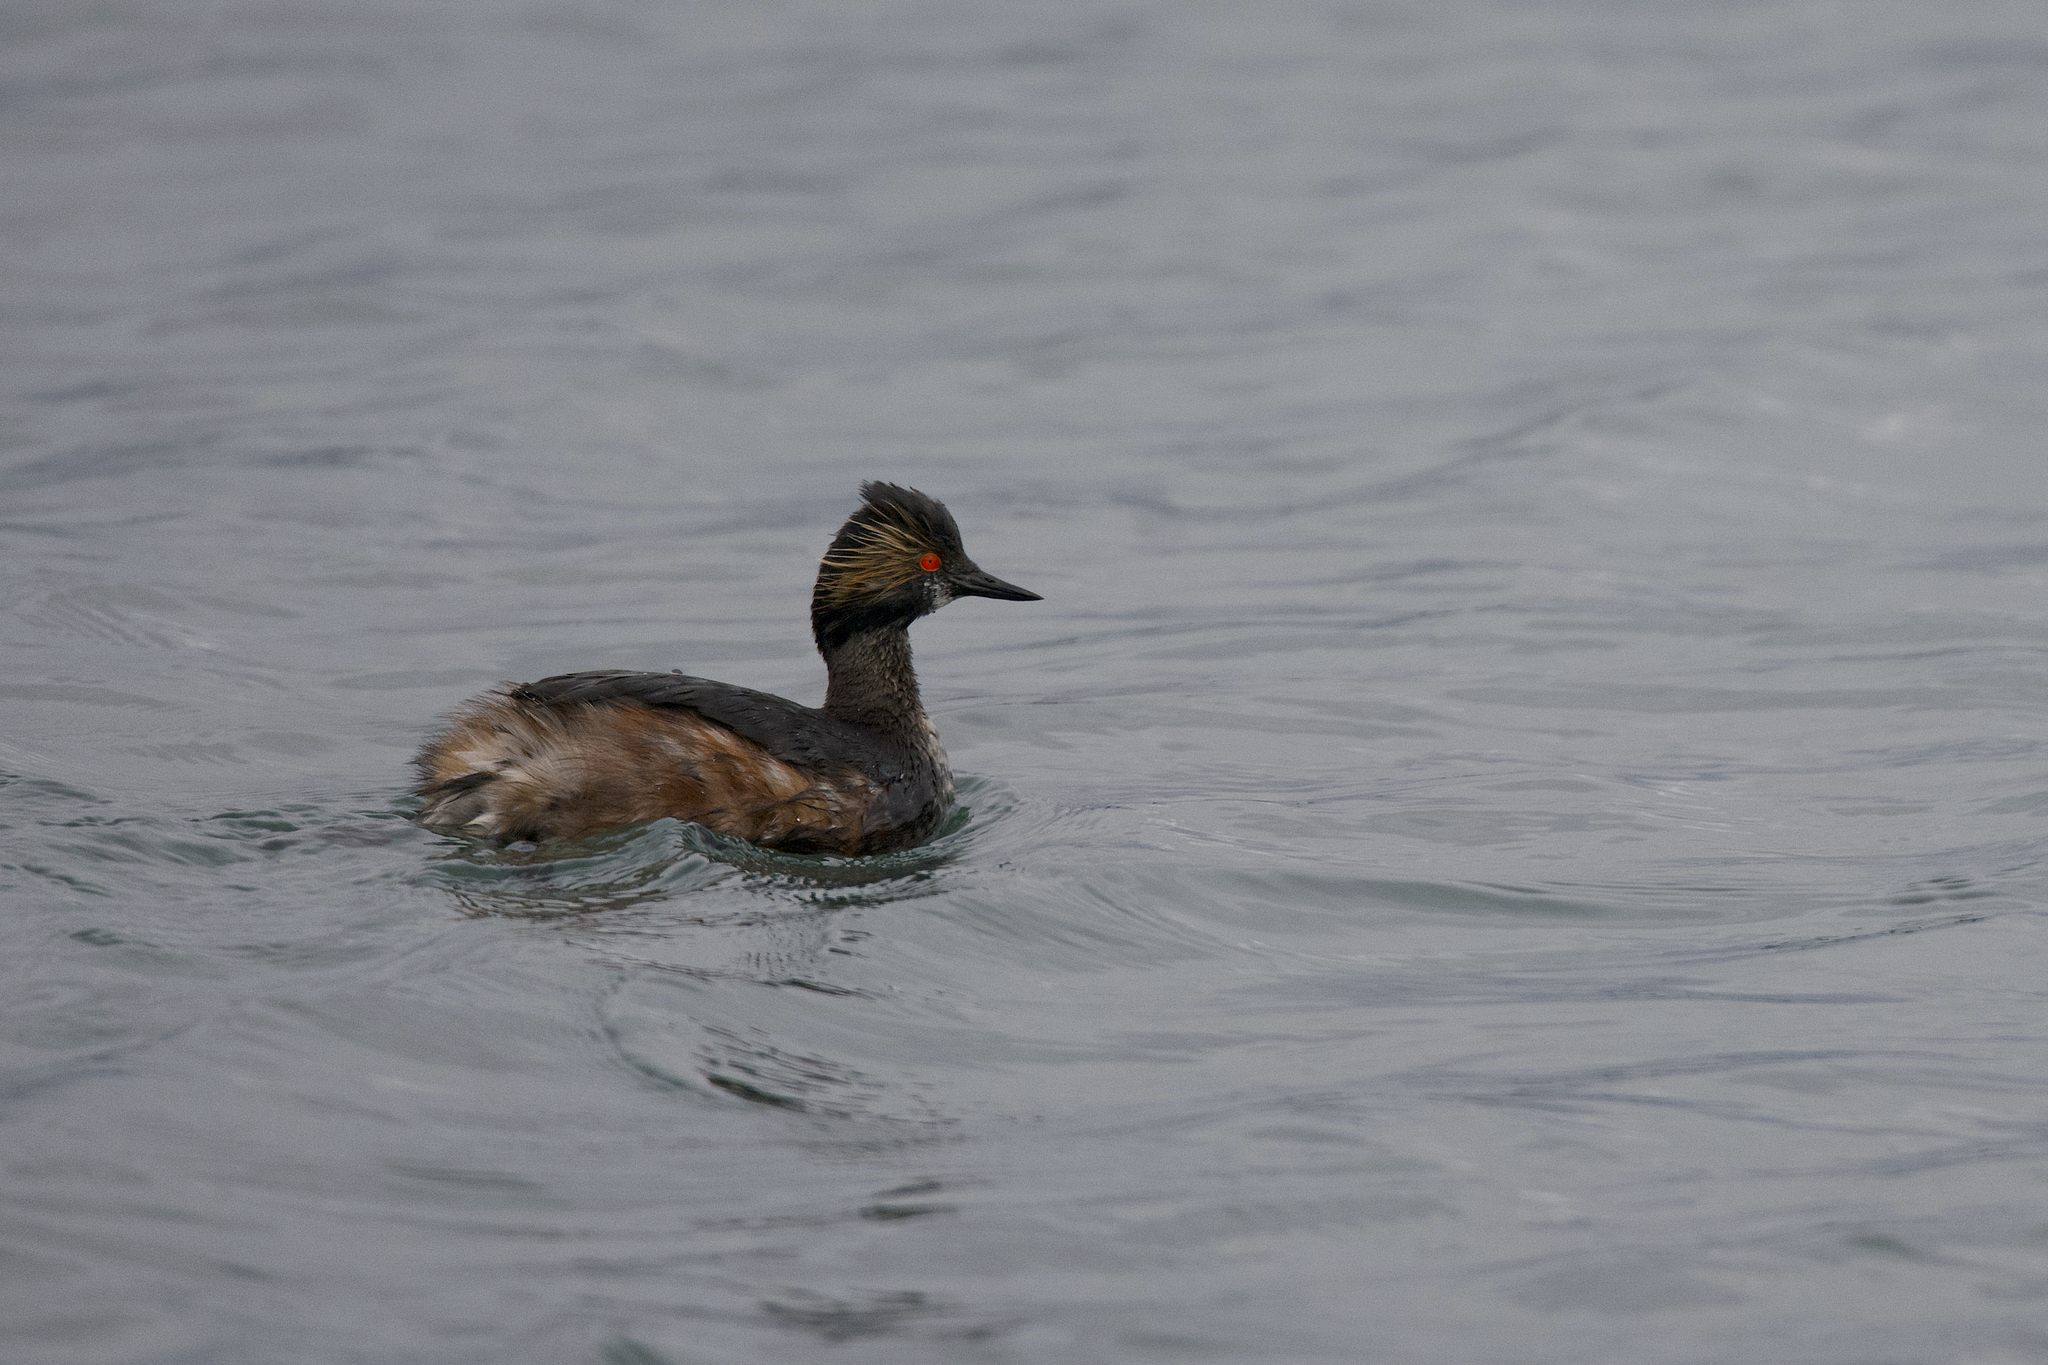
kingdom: Animalia
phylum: Chordata
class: Aves
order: Podicipediformes
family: Podicipedidae
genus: Podiceps
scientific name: Podiceps nigricollis
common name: Black-necked grebe
